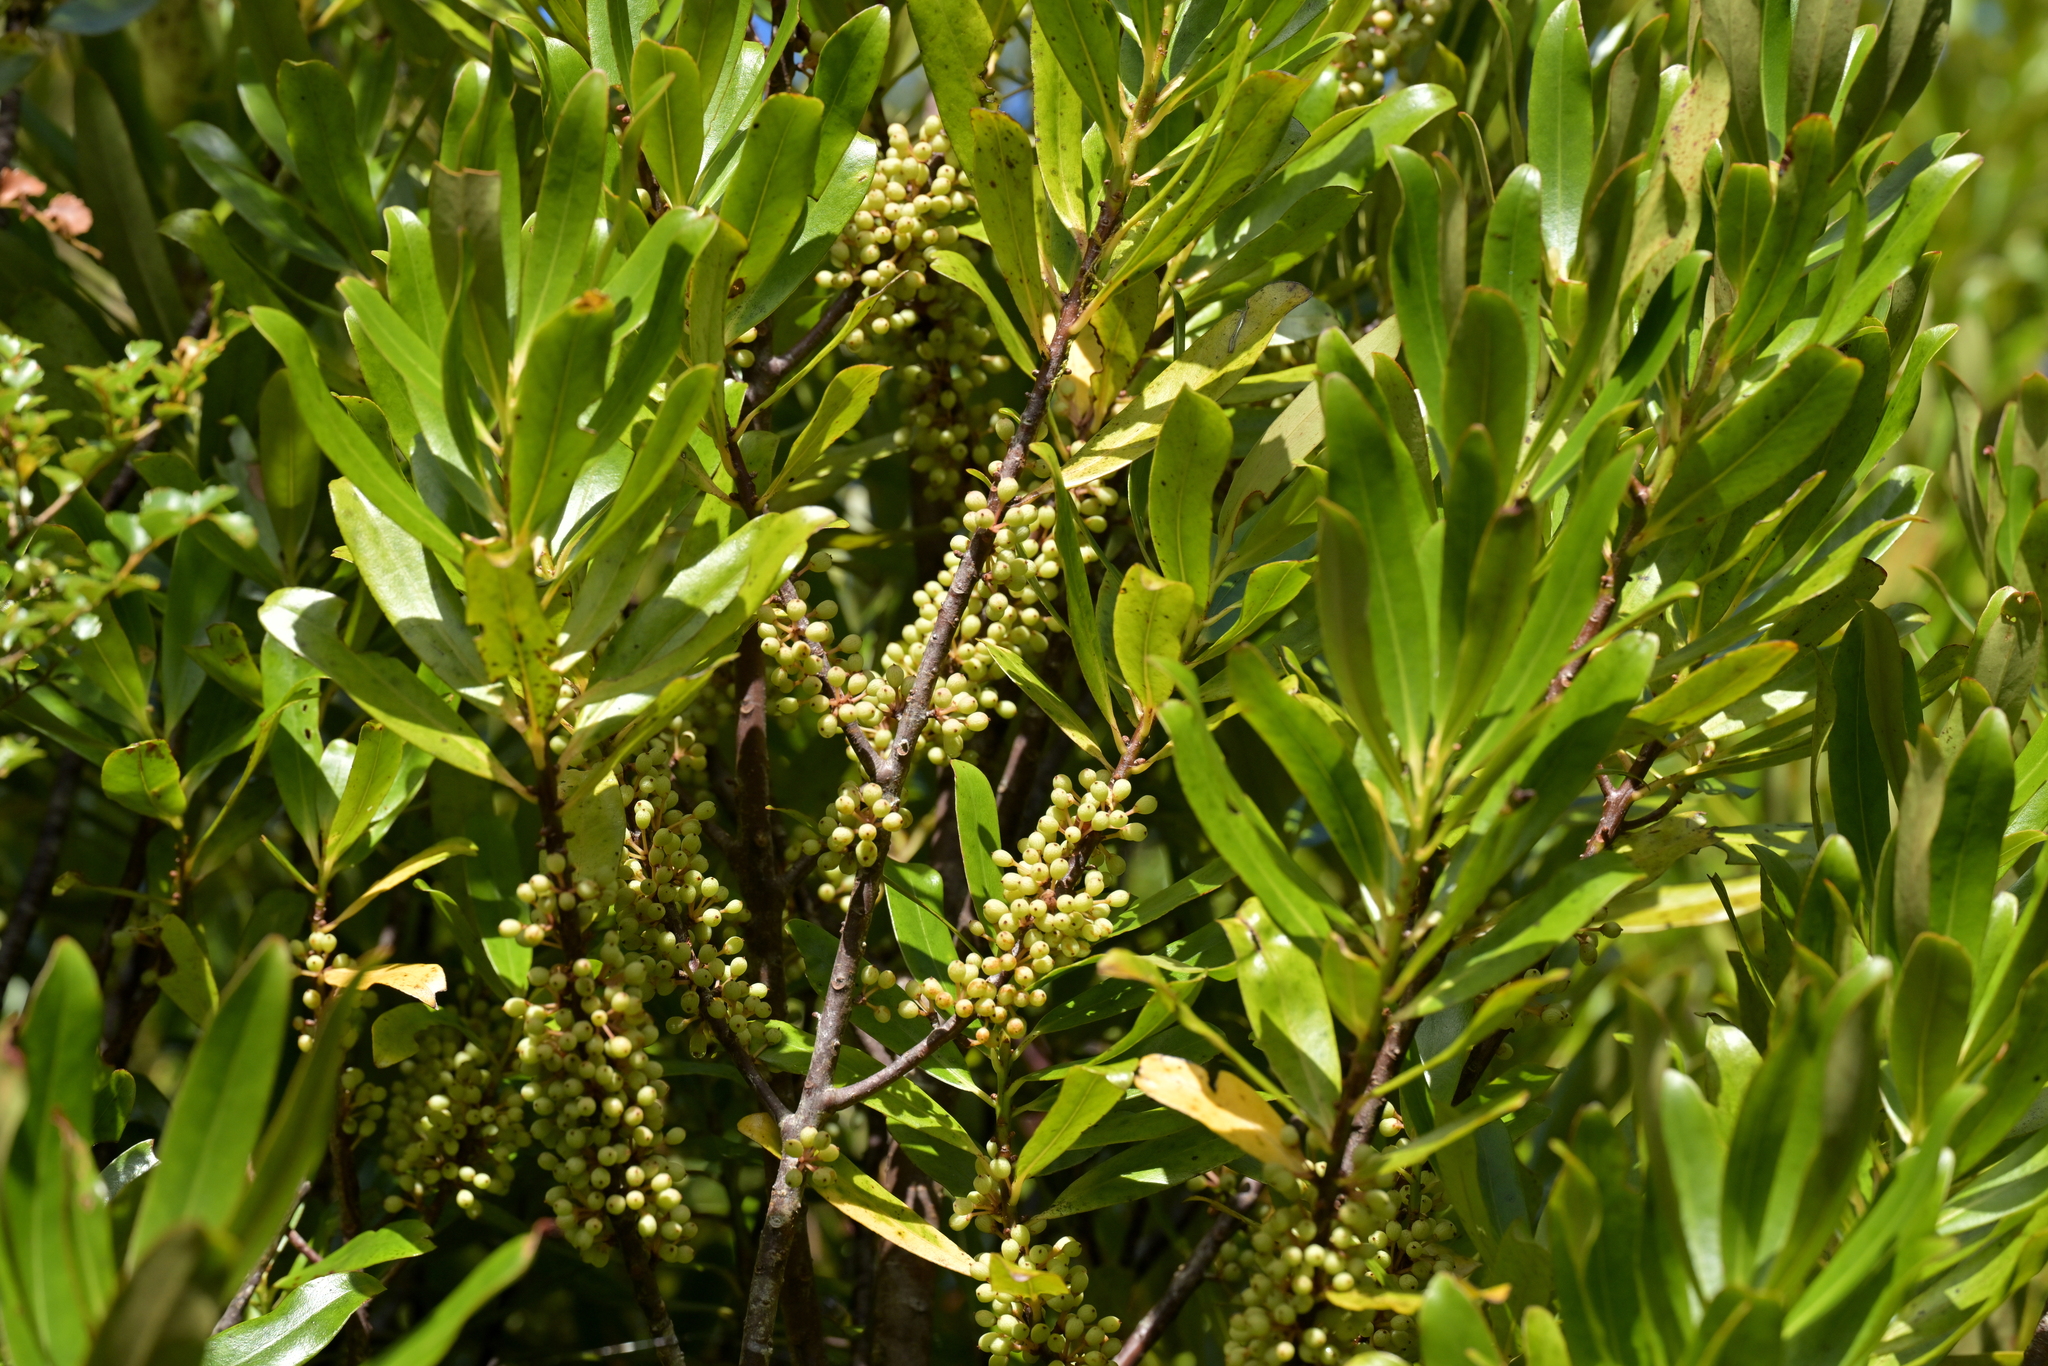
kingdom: Plantae
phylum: Tracheophyta
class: Magnoliopsida
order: Ericales
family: Primulaceae
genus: Myrsine
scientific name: Myrsine salicina
